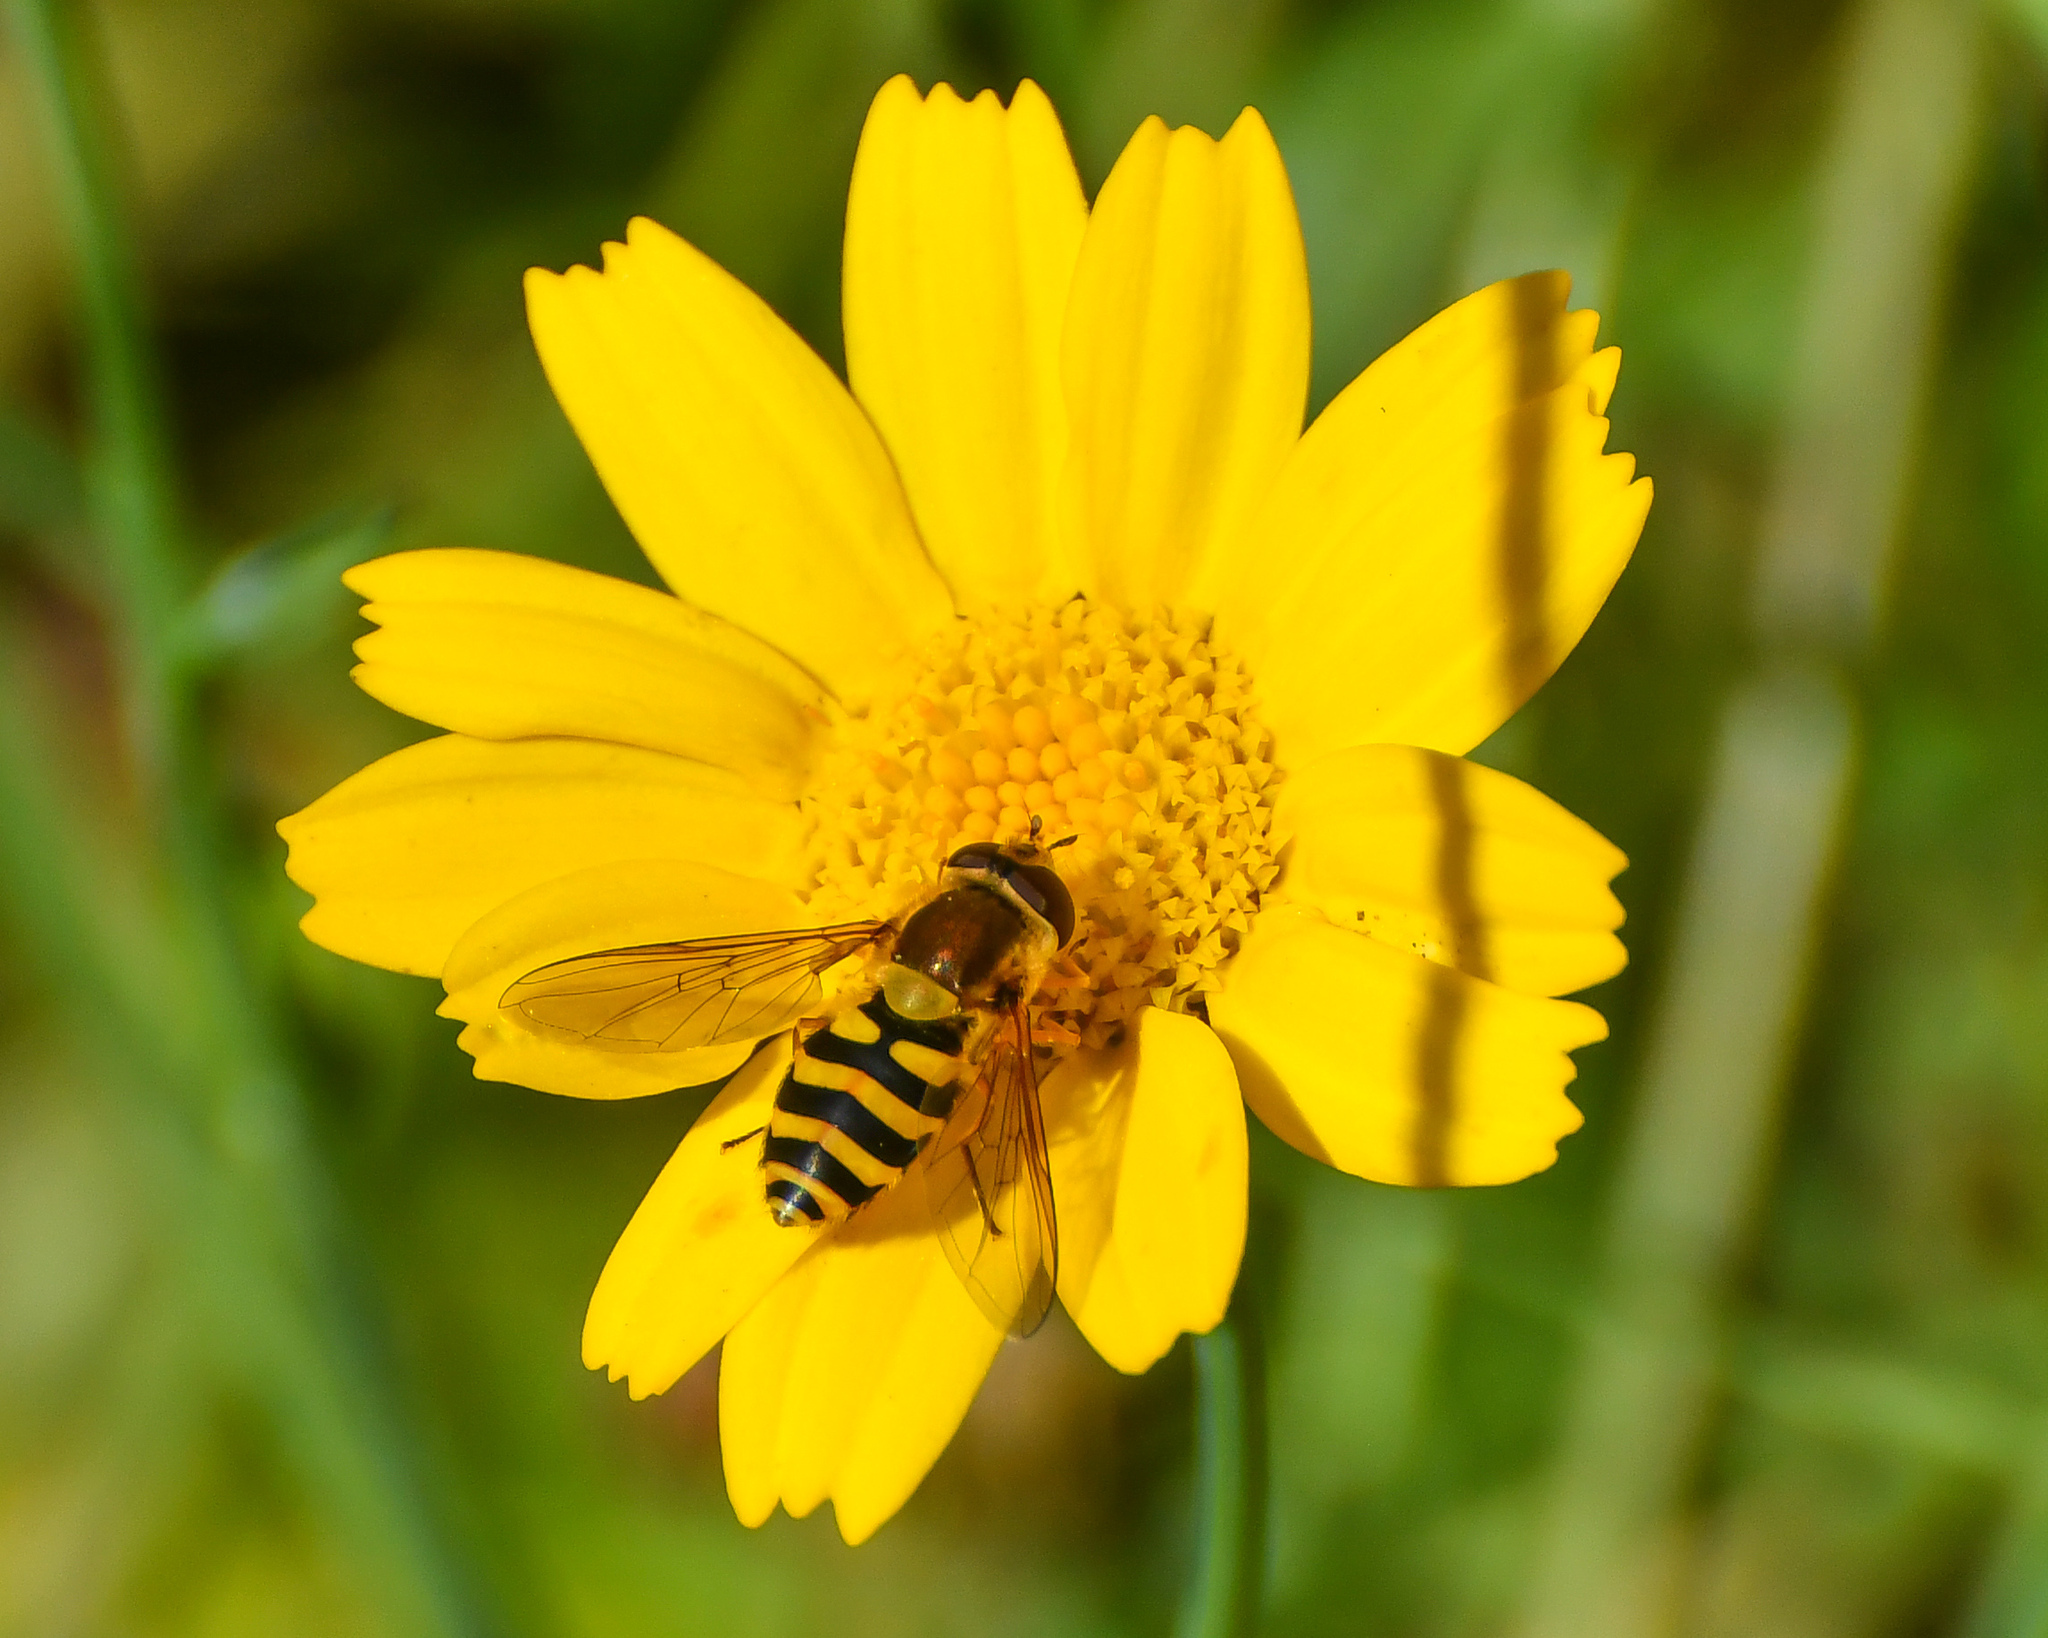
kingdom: Animalia
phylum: Arthropoda
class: Insecta
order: Diptera
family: Syrphidae
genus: Syrphus
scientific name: Syrphus
